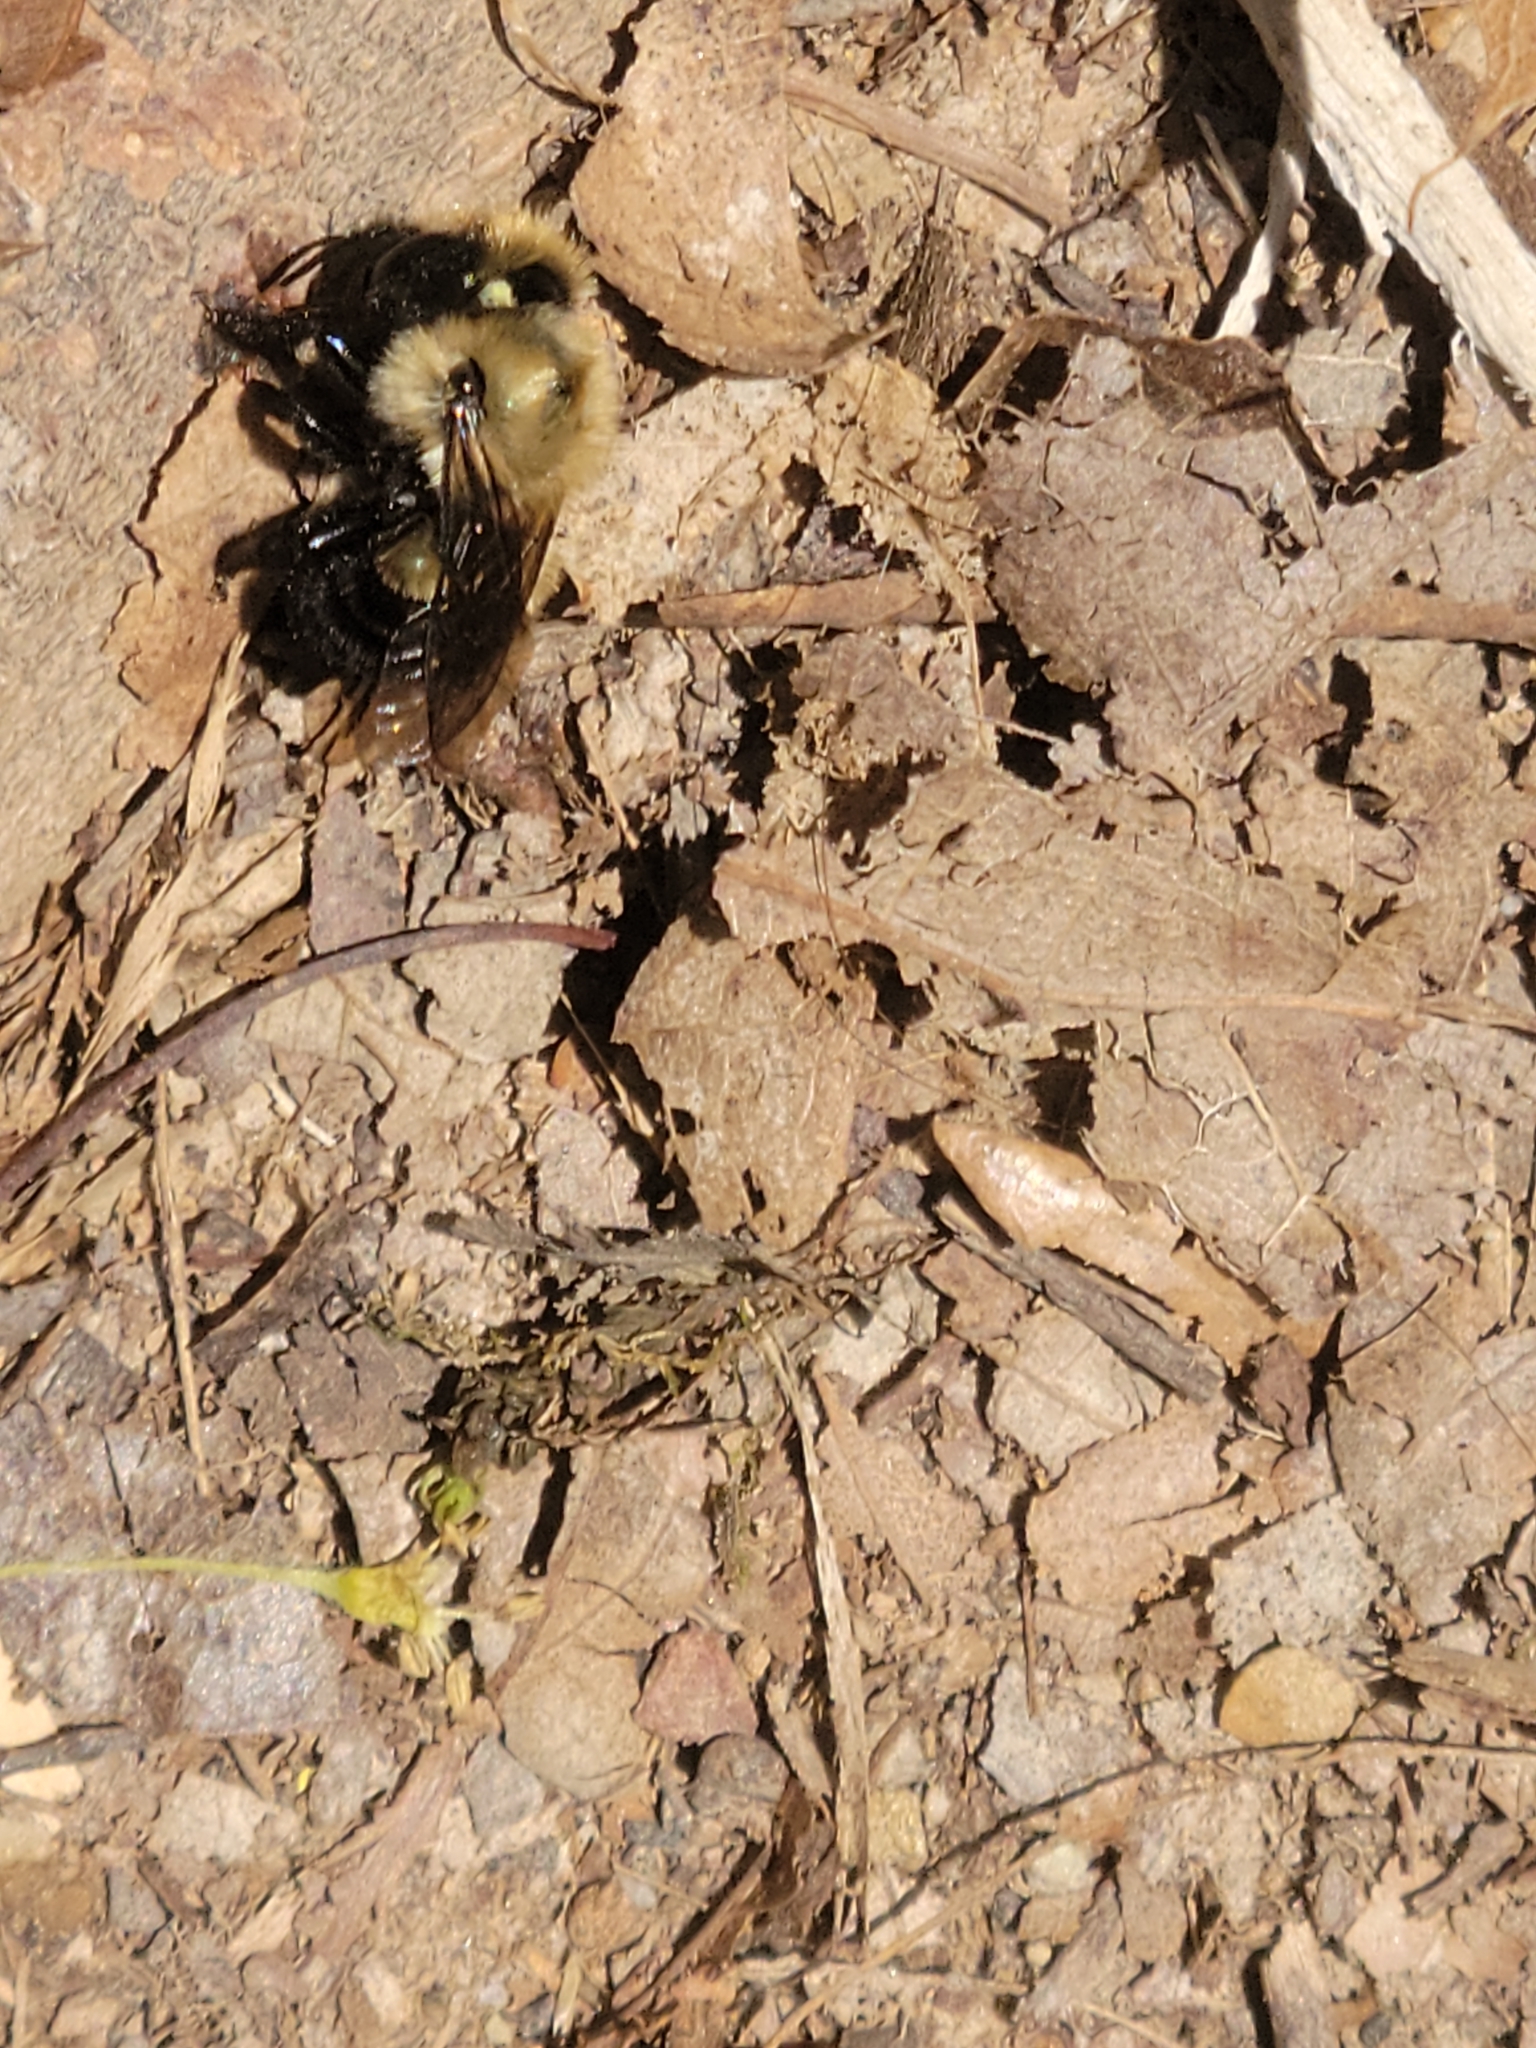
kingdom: Animalia
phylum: Arthropoda
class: Insecta
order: Hymenoptera
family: Megachilidae
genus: Osmia
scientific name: Osmia bucephala
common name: Bufflehead mason bee
